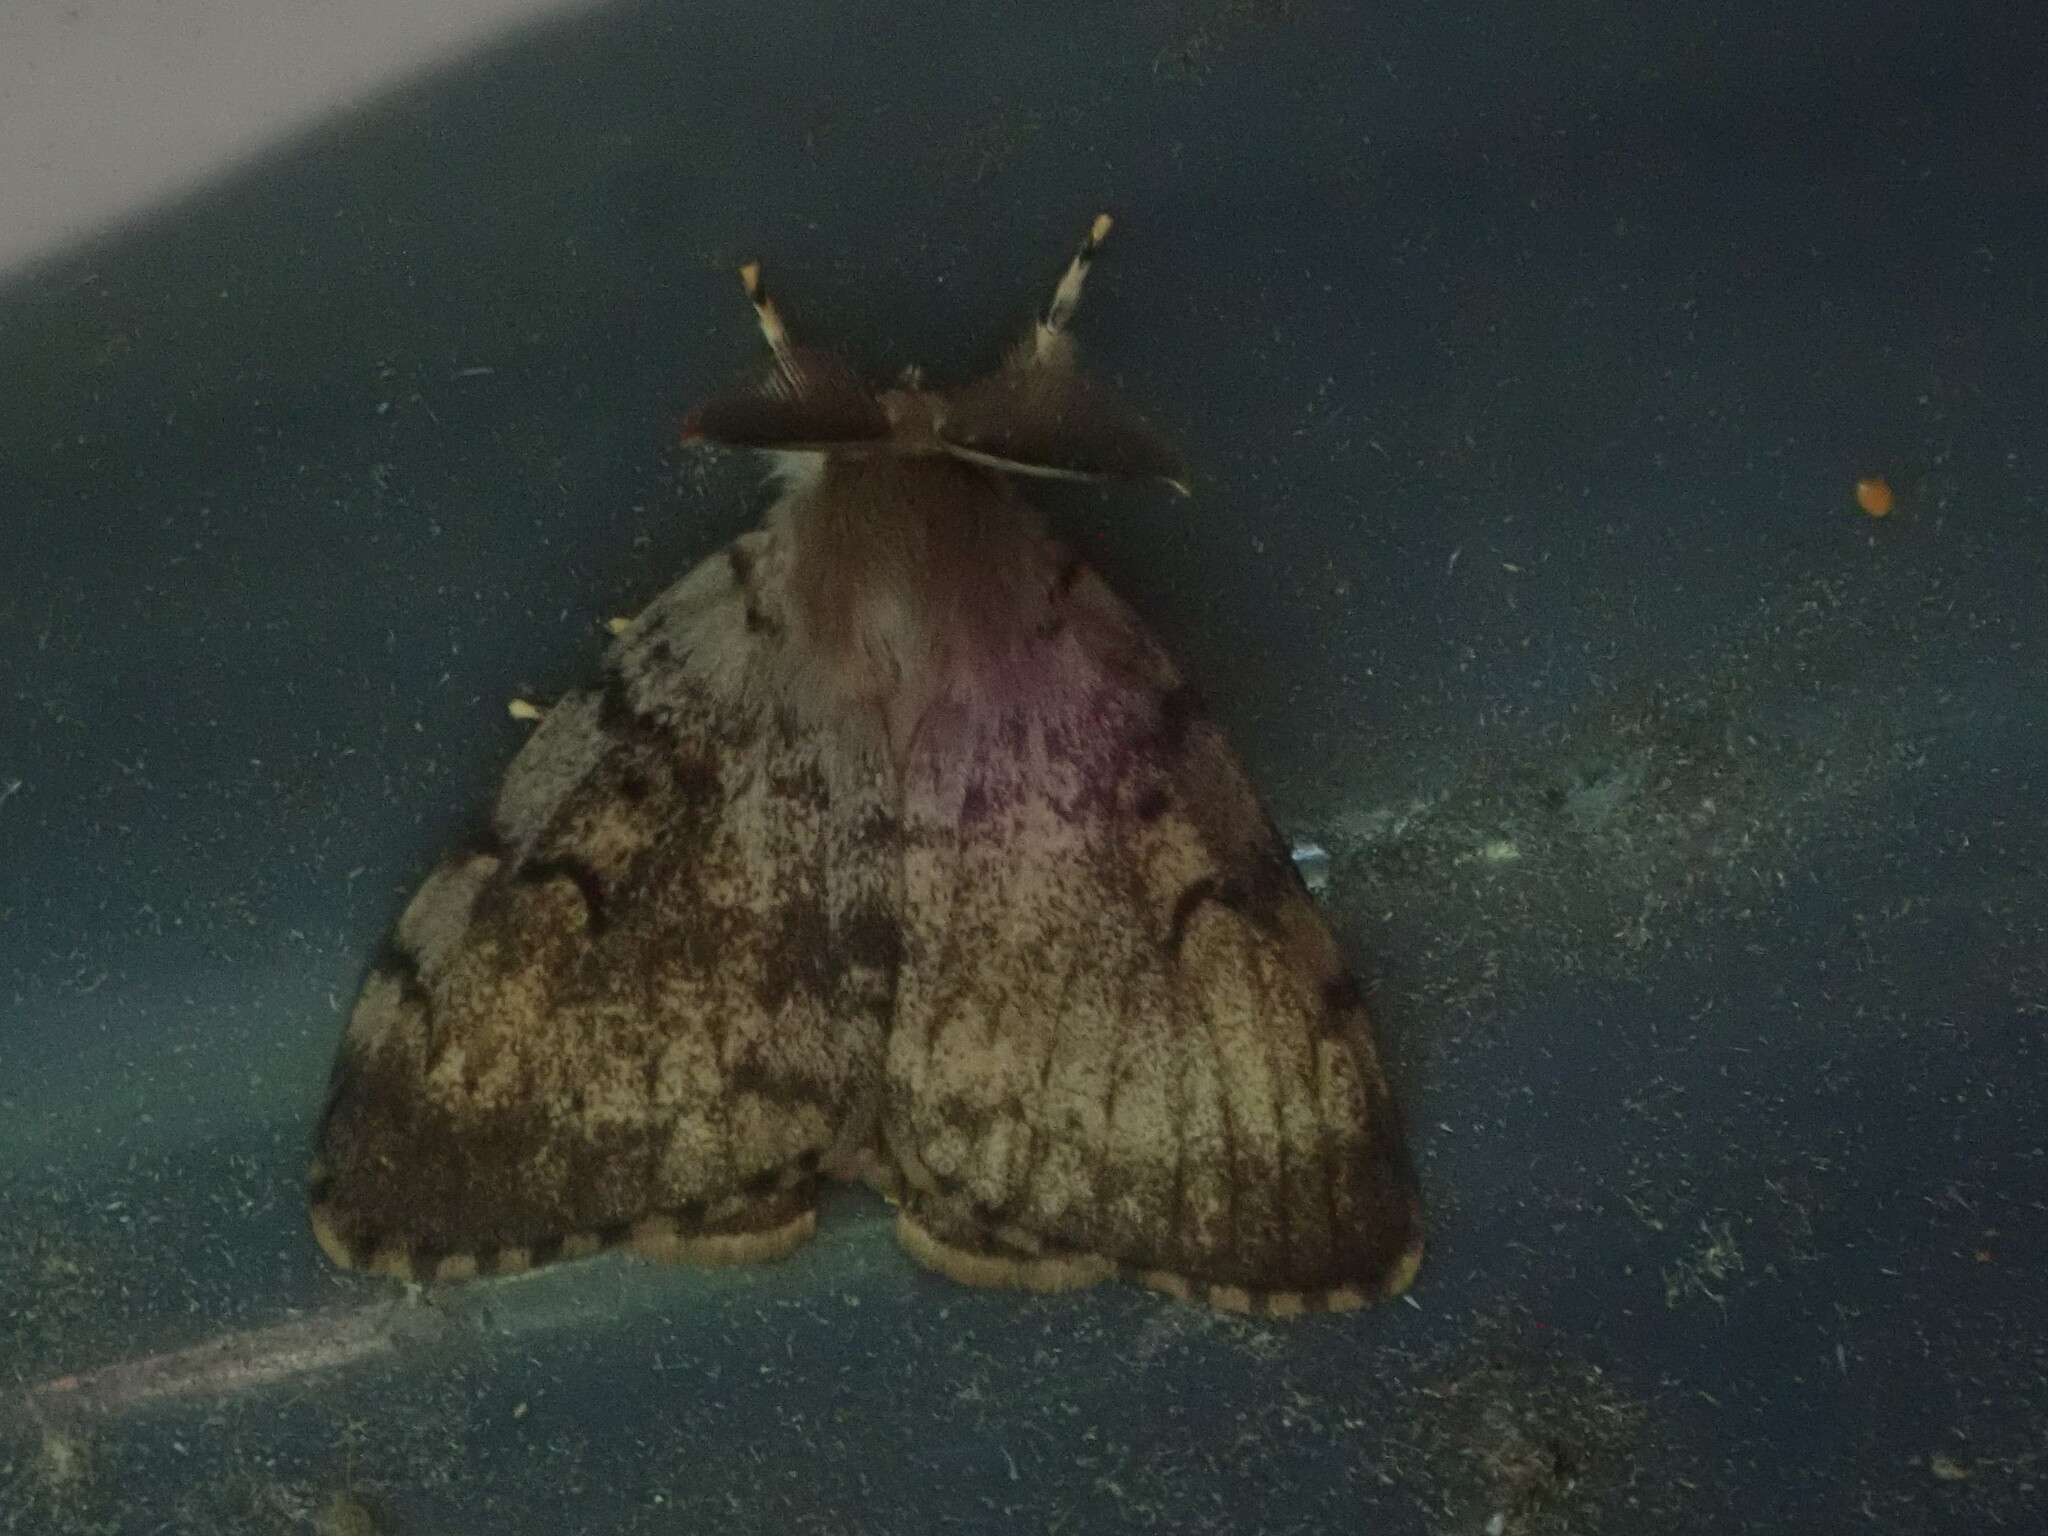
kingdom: Animalia
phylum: Arthropoda
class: Insecta
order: Lepidoptera
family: Erebidae
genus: Lymantria
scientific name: Lymantria dispar
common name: Gypsy moth
